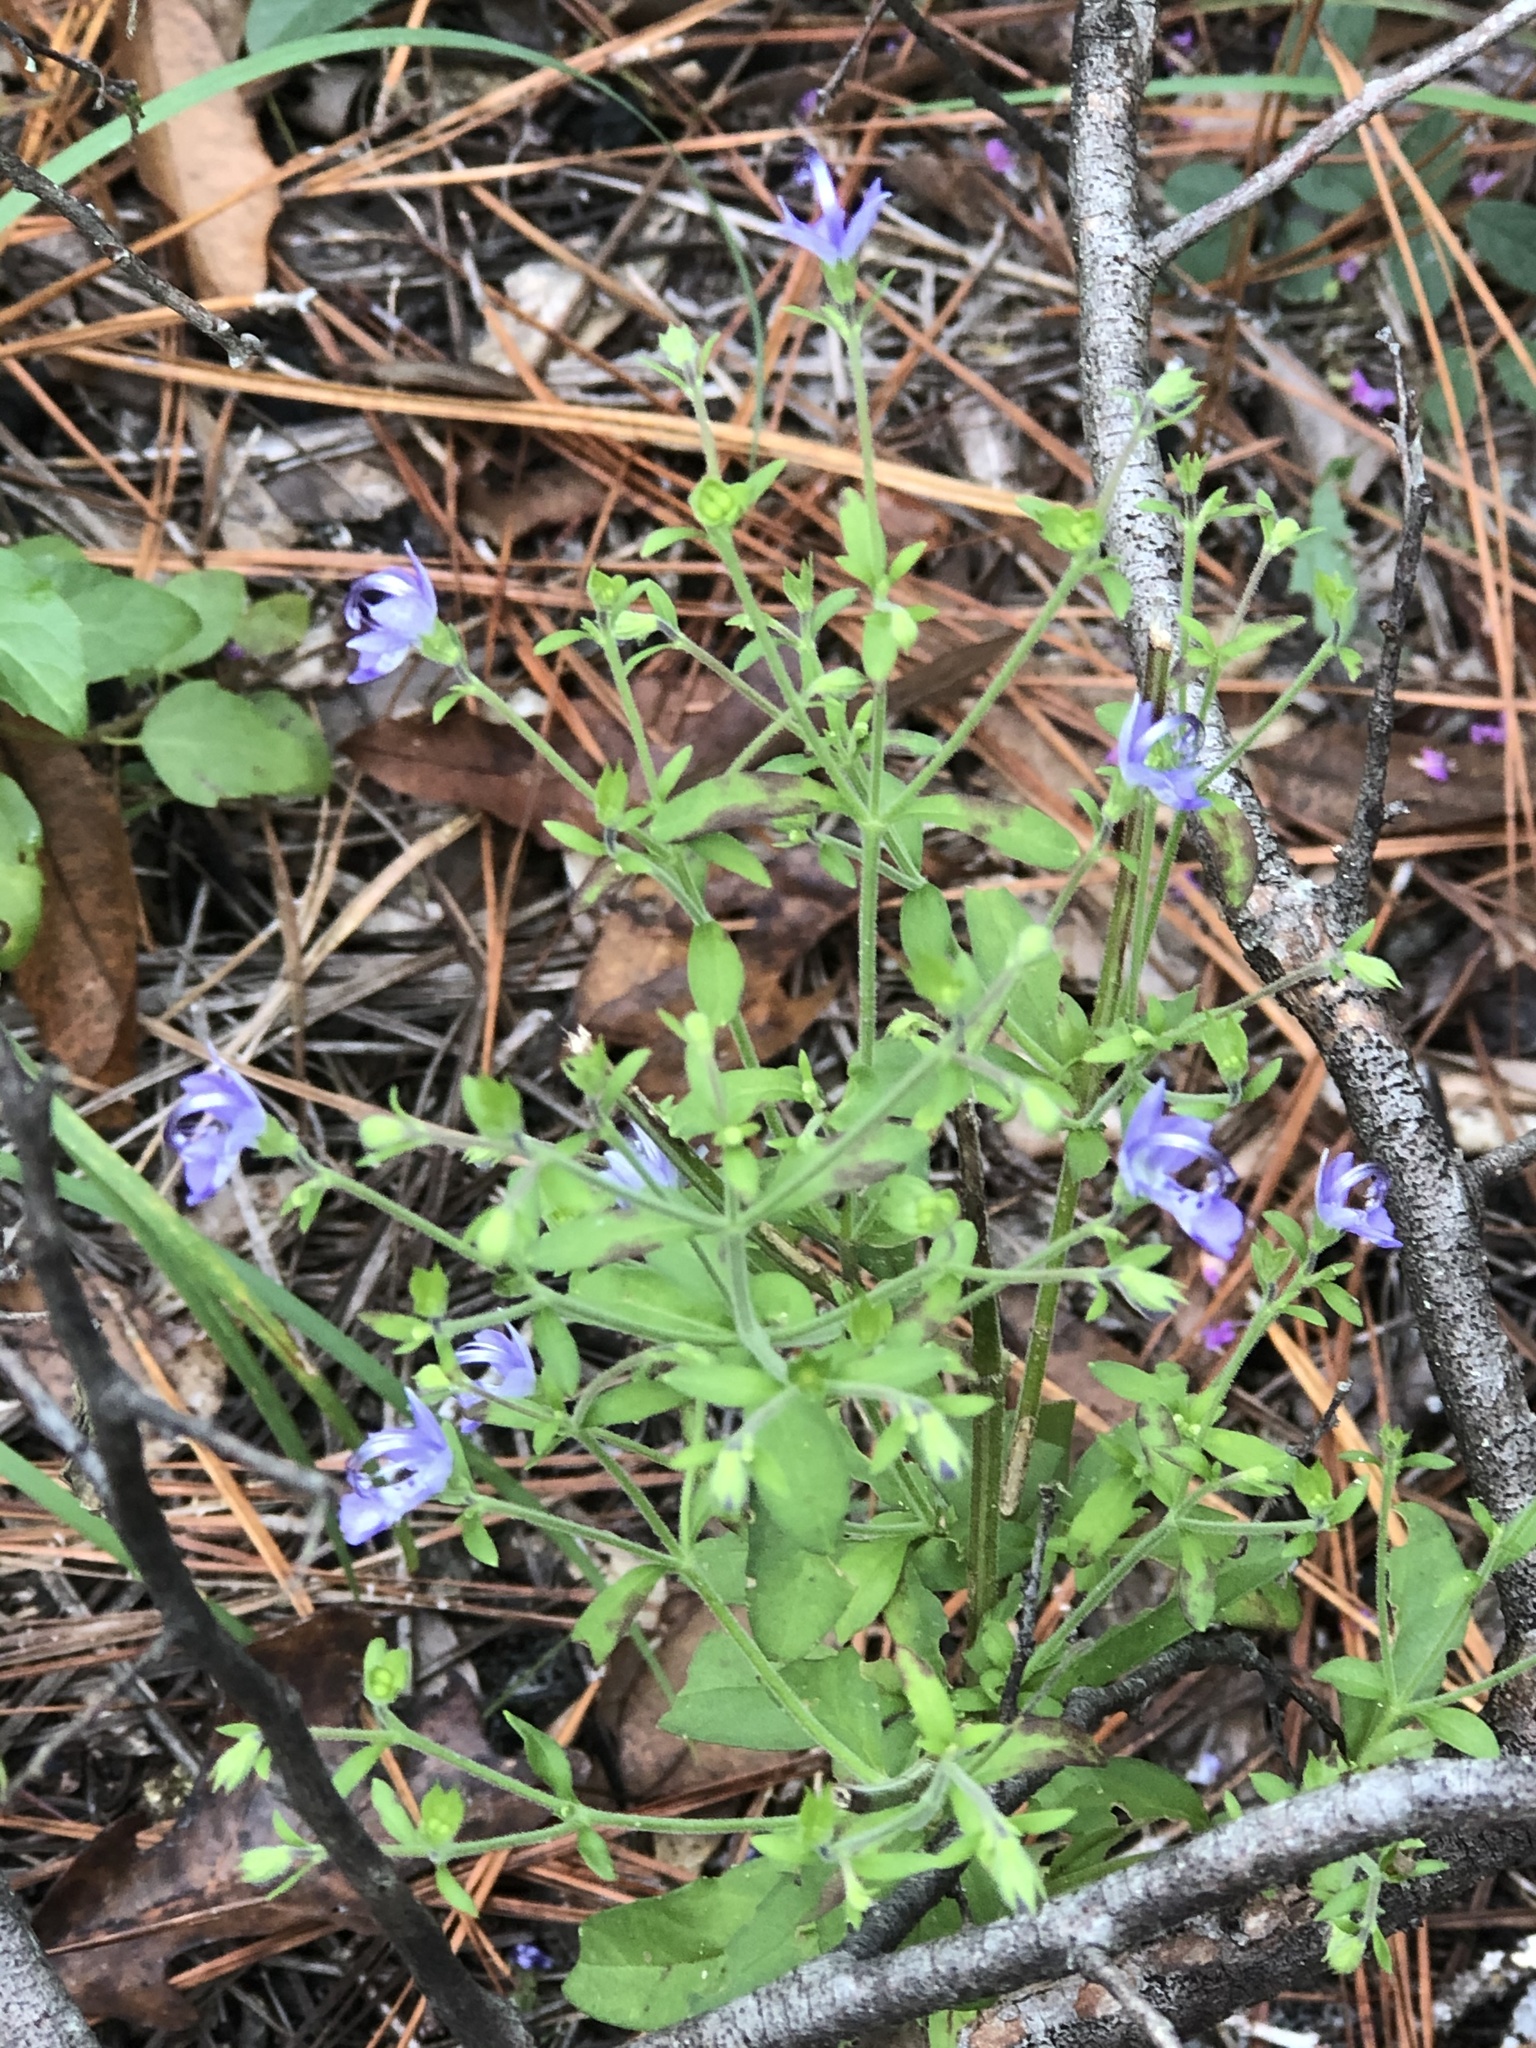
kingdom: Plantae
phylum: Tracheophyta
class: Magnoliopsida
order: Lamiales
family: Lamiaceae
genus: Trichostema
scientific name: Trichostema dichotomum
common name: Bastard pennyroyal
